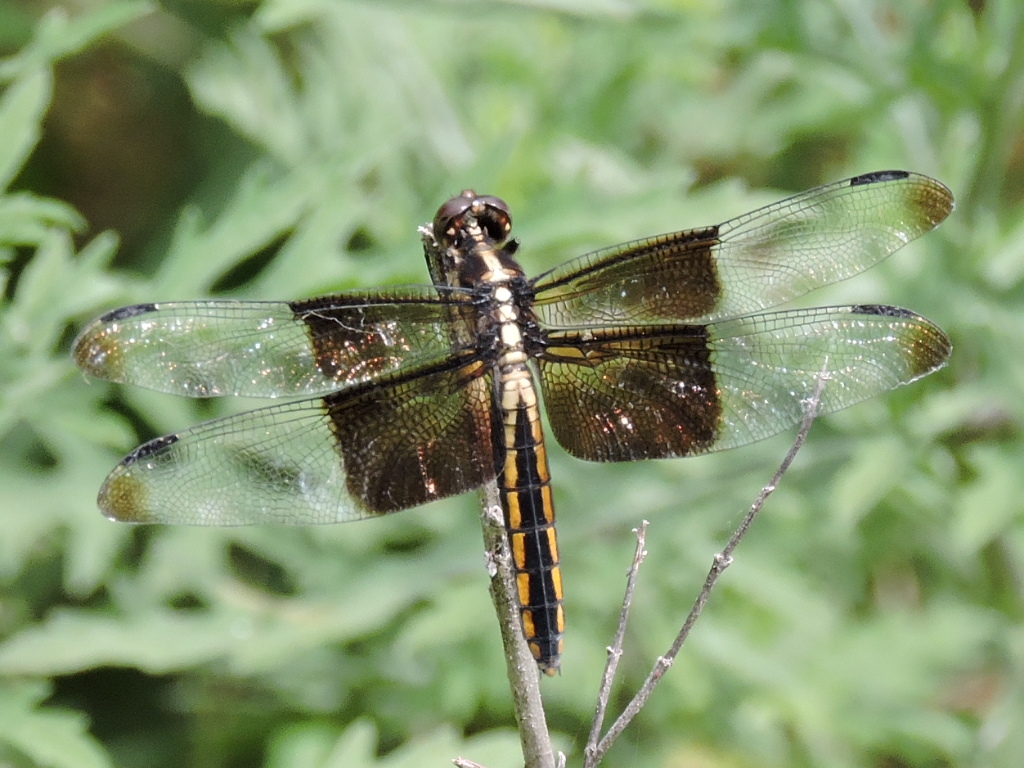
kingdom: Animalia
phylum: Arthropoda
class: Insecta
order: Odonata
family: Libellulidae
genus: Libellula
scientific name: Libellula luctuosa
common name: Widow skimmer
